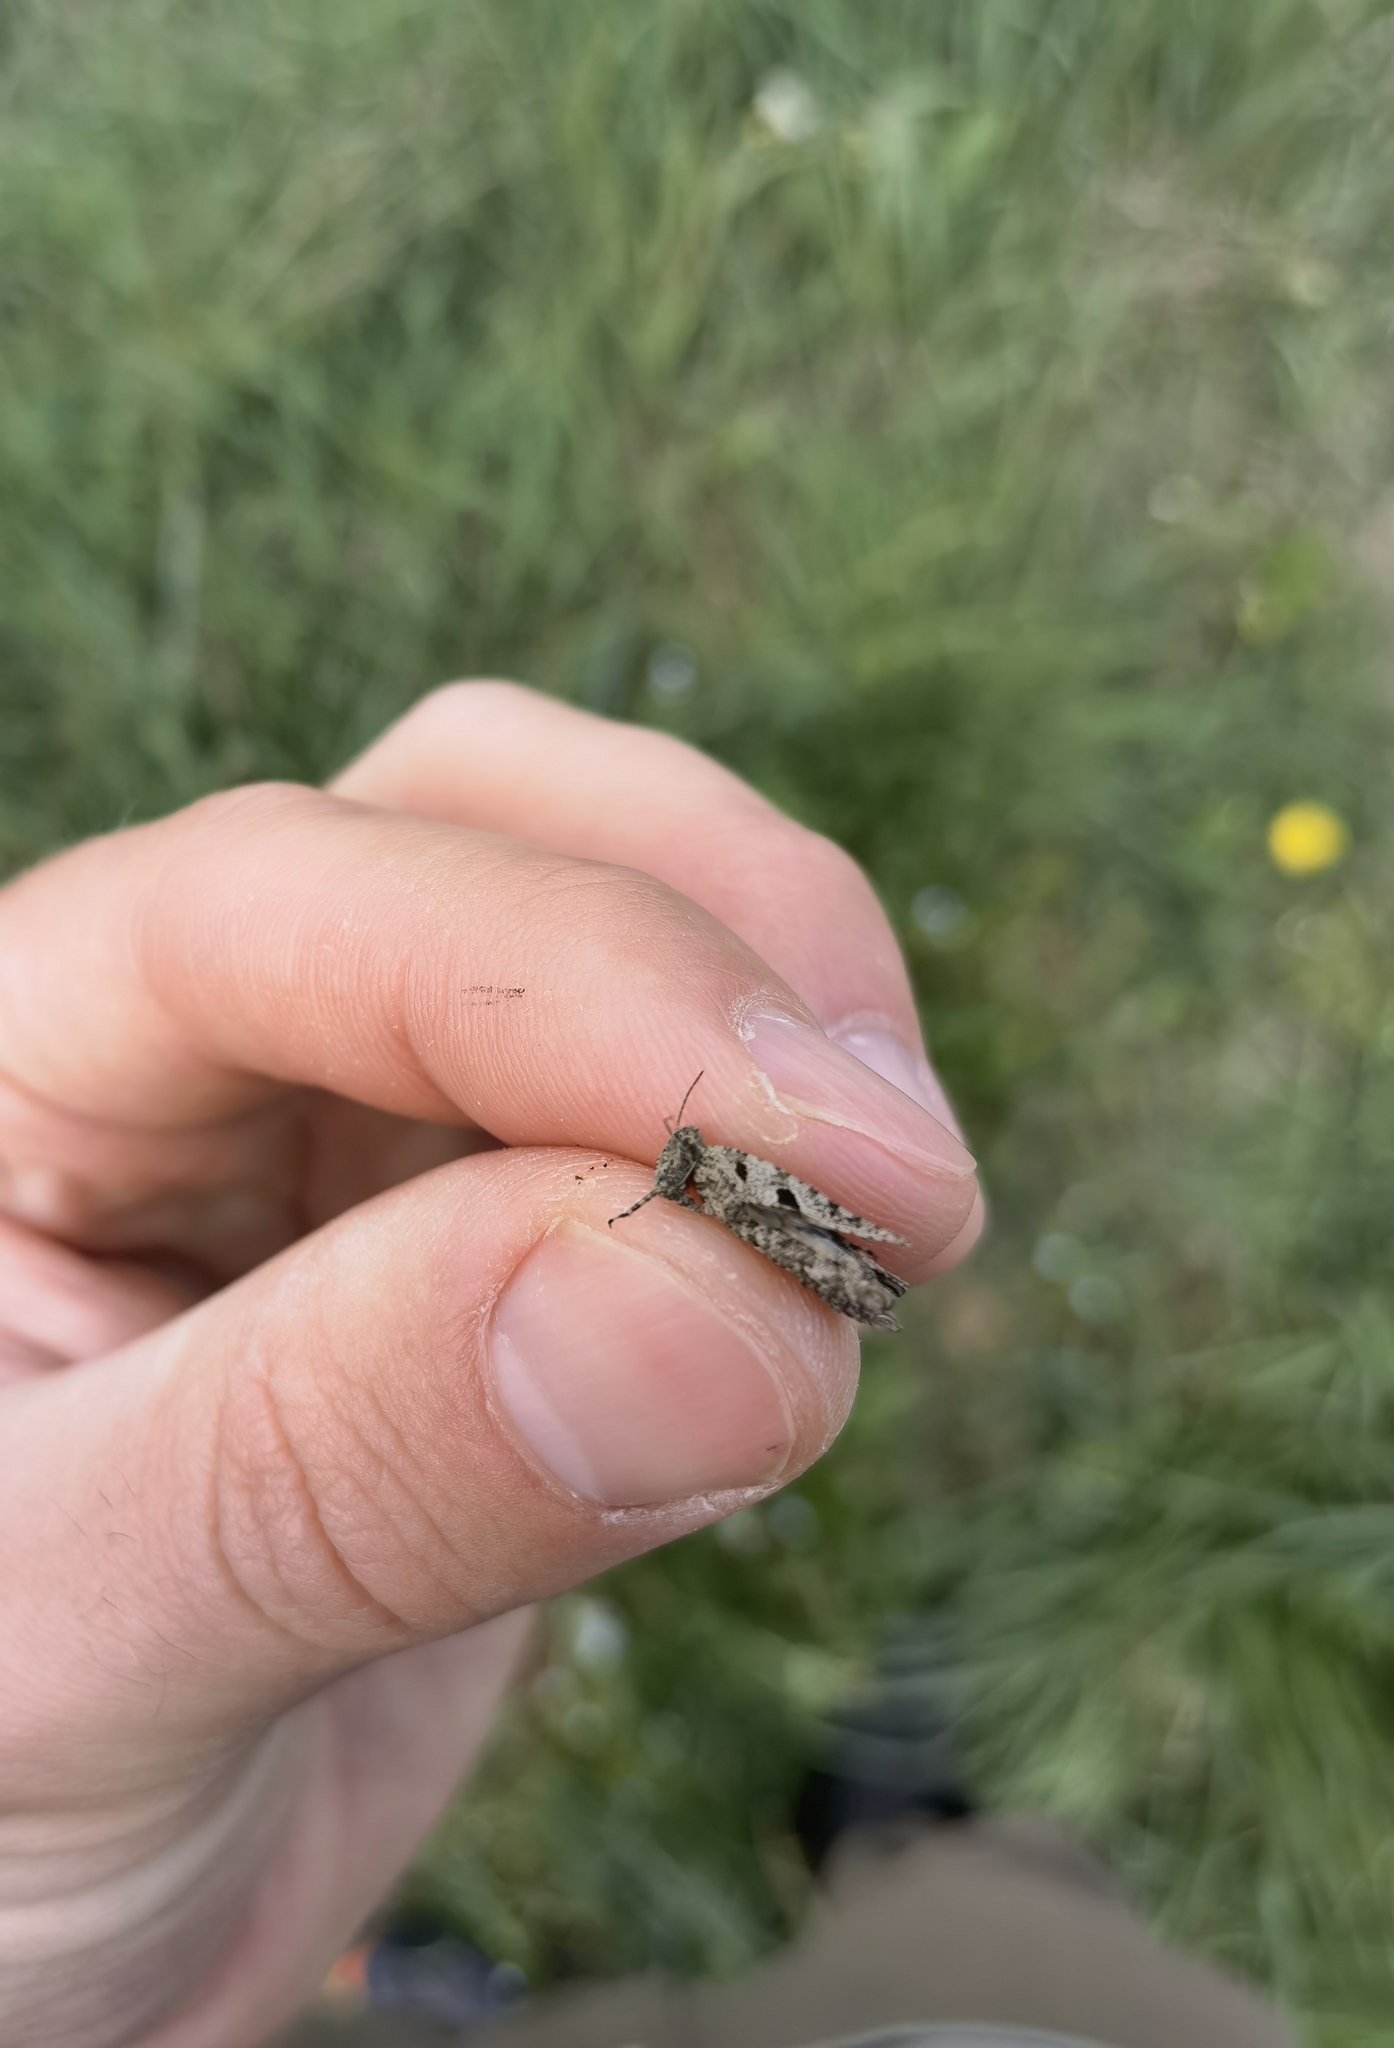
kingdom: Animalia
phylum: Arthropoda
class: Insecta
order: Orthoptera
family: Tetrigidae
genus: Tetrix
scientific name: Tetrix tenuicornis
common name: Long-horned groundhopper
